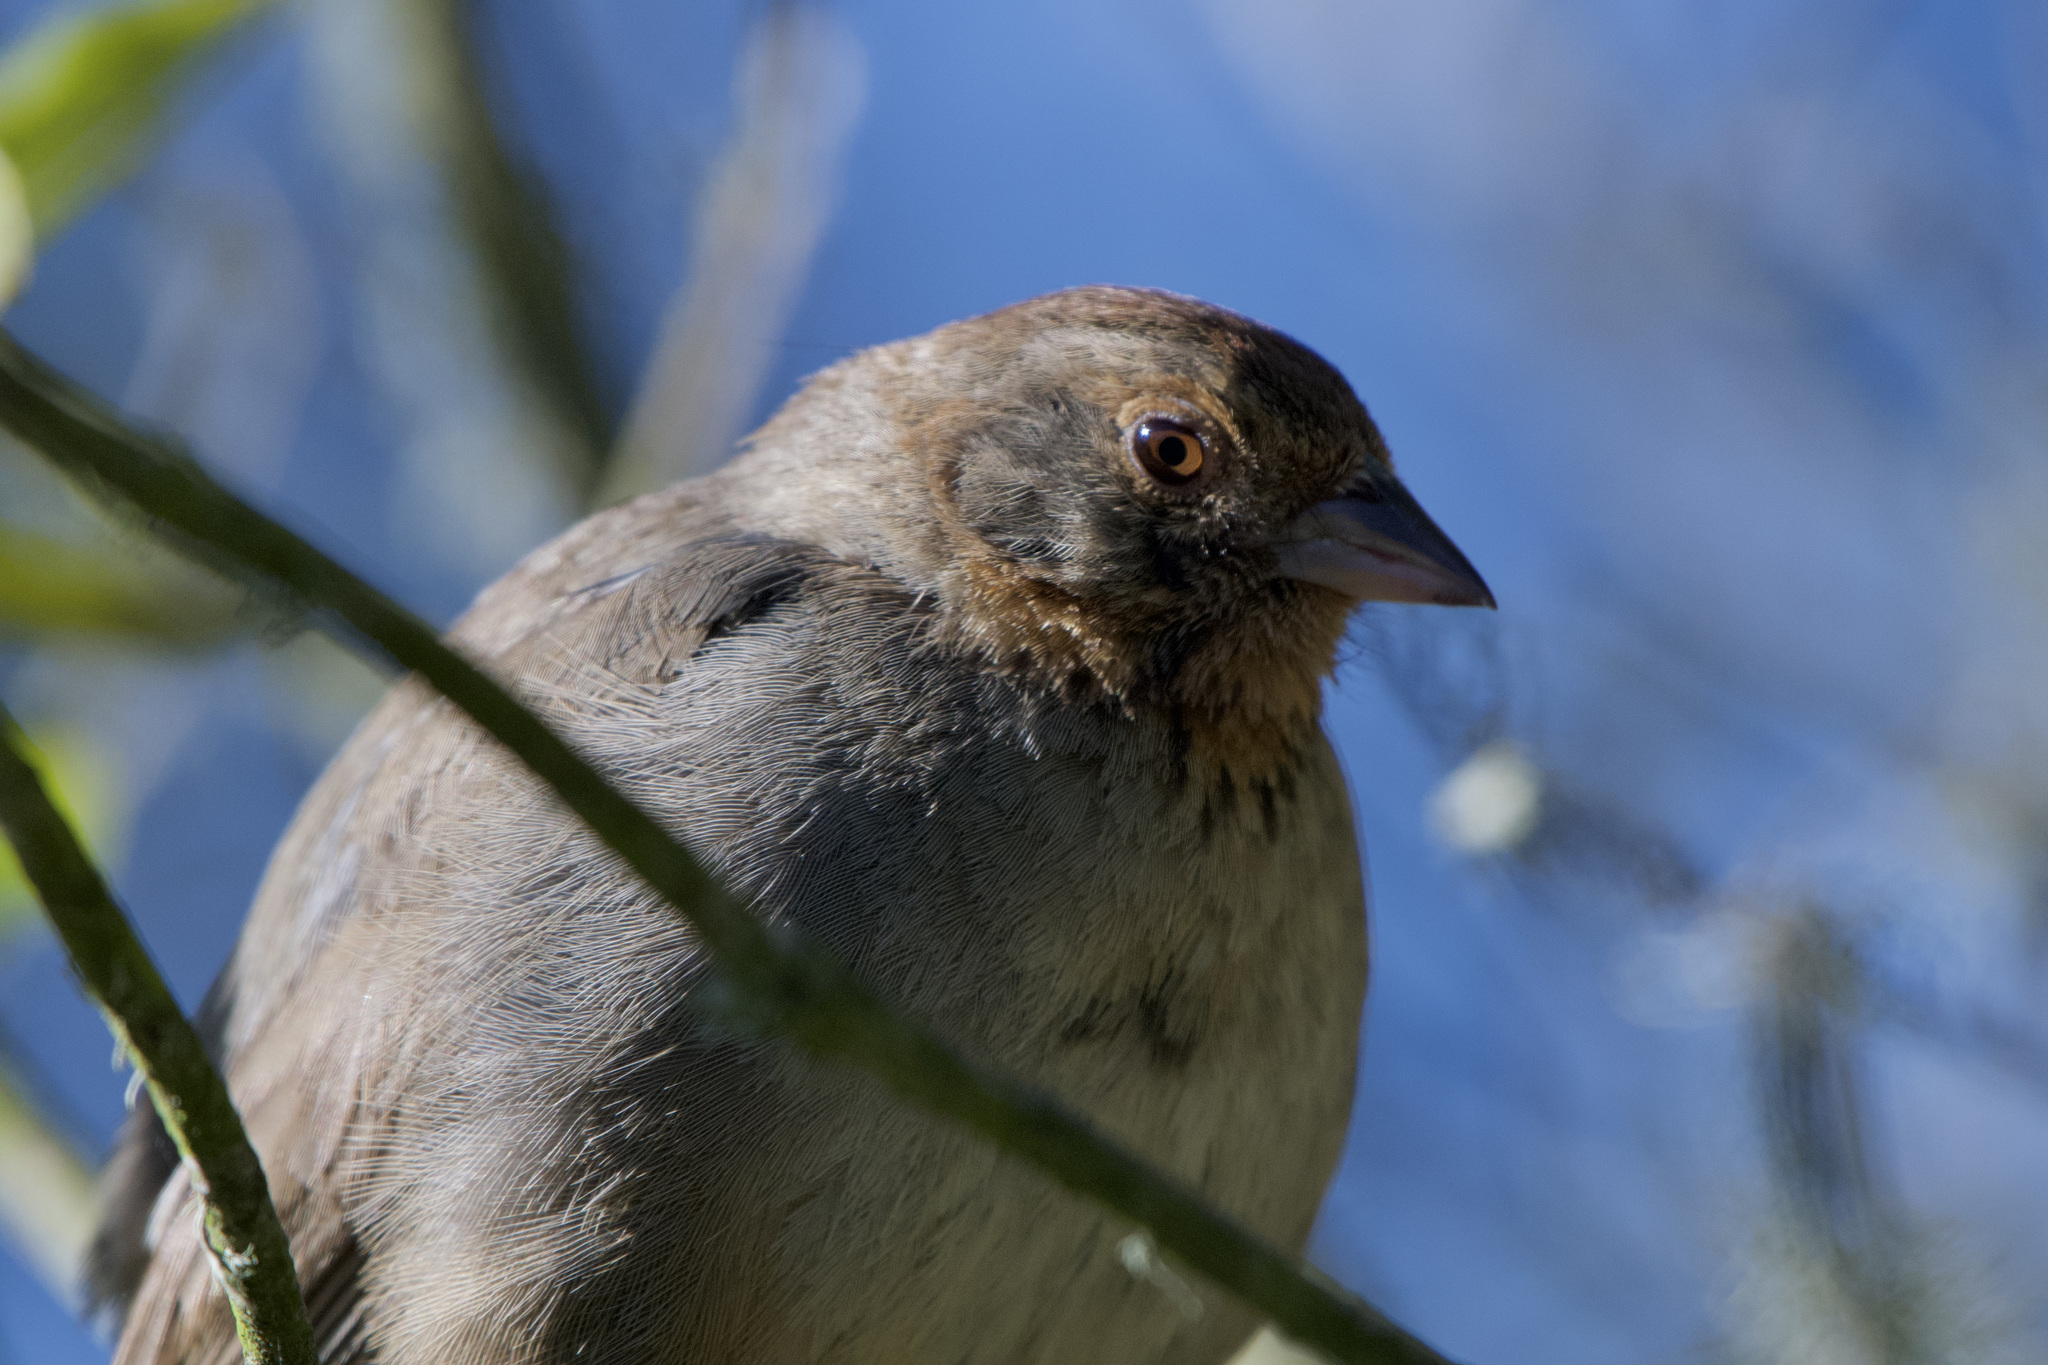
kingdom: Animalia
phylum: Chordata
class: Aves
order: Passeriformes
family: Passerellidae
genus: Melozone
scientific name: Melozone crissalis
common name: California towhee
